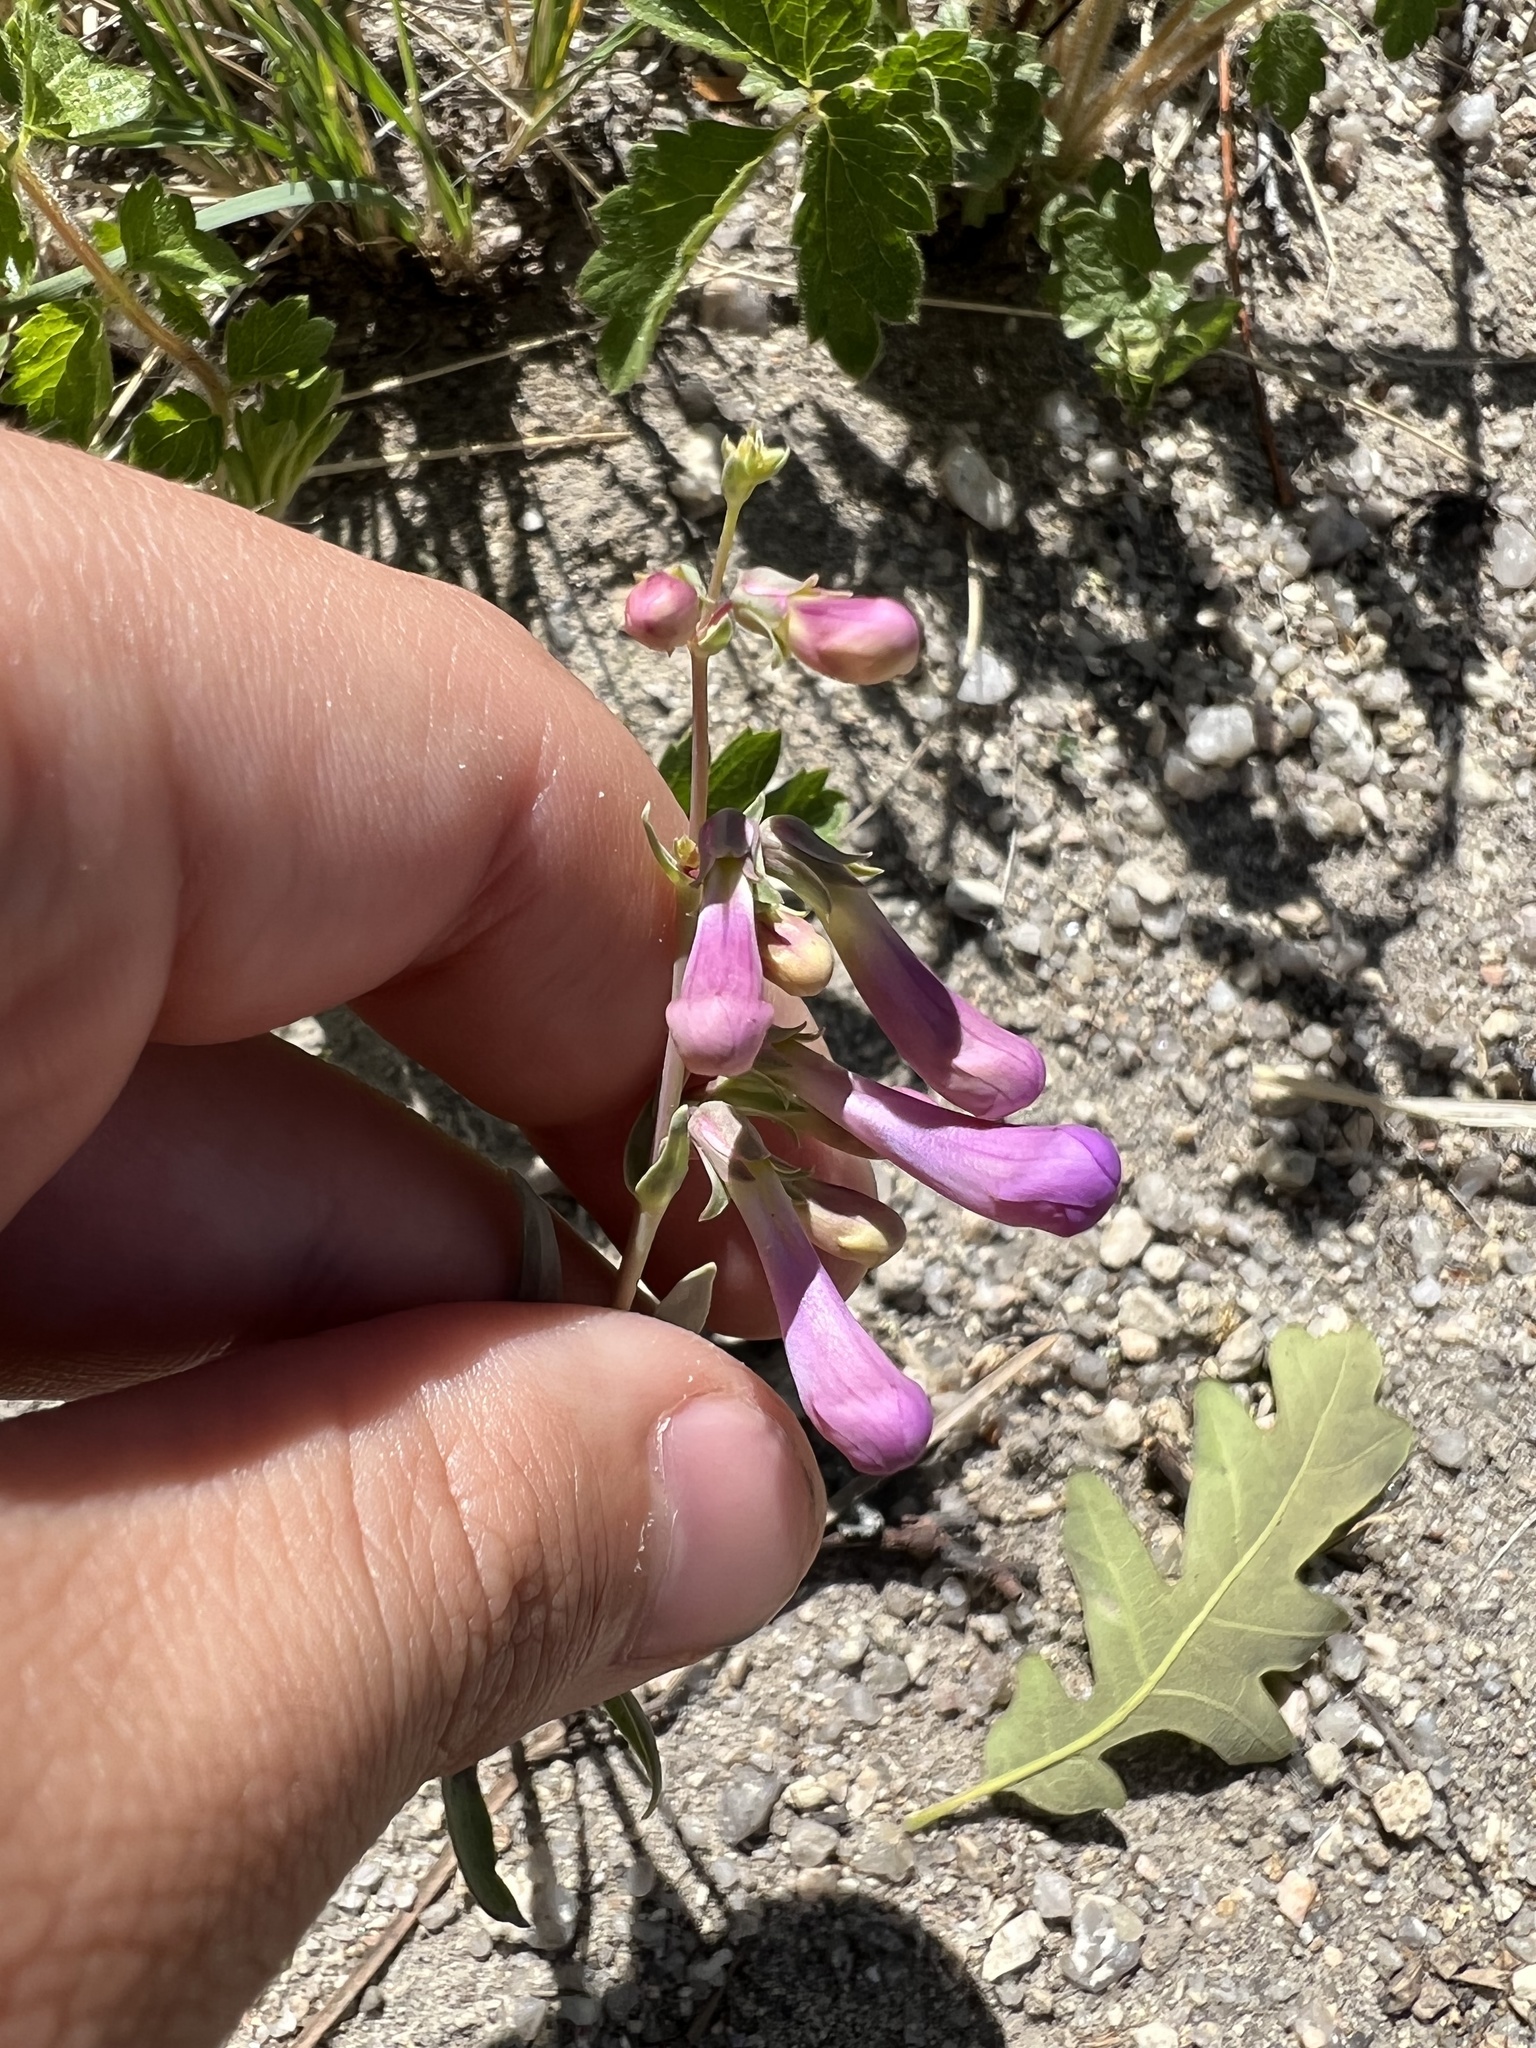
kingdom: Plantae
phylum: Tracheophyta
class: Magnoliopsida
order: Lamiales
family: Plantaginaceae
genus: Penstemon
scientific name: Penstemon secundiflorus
